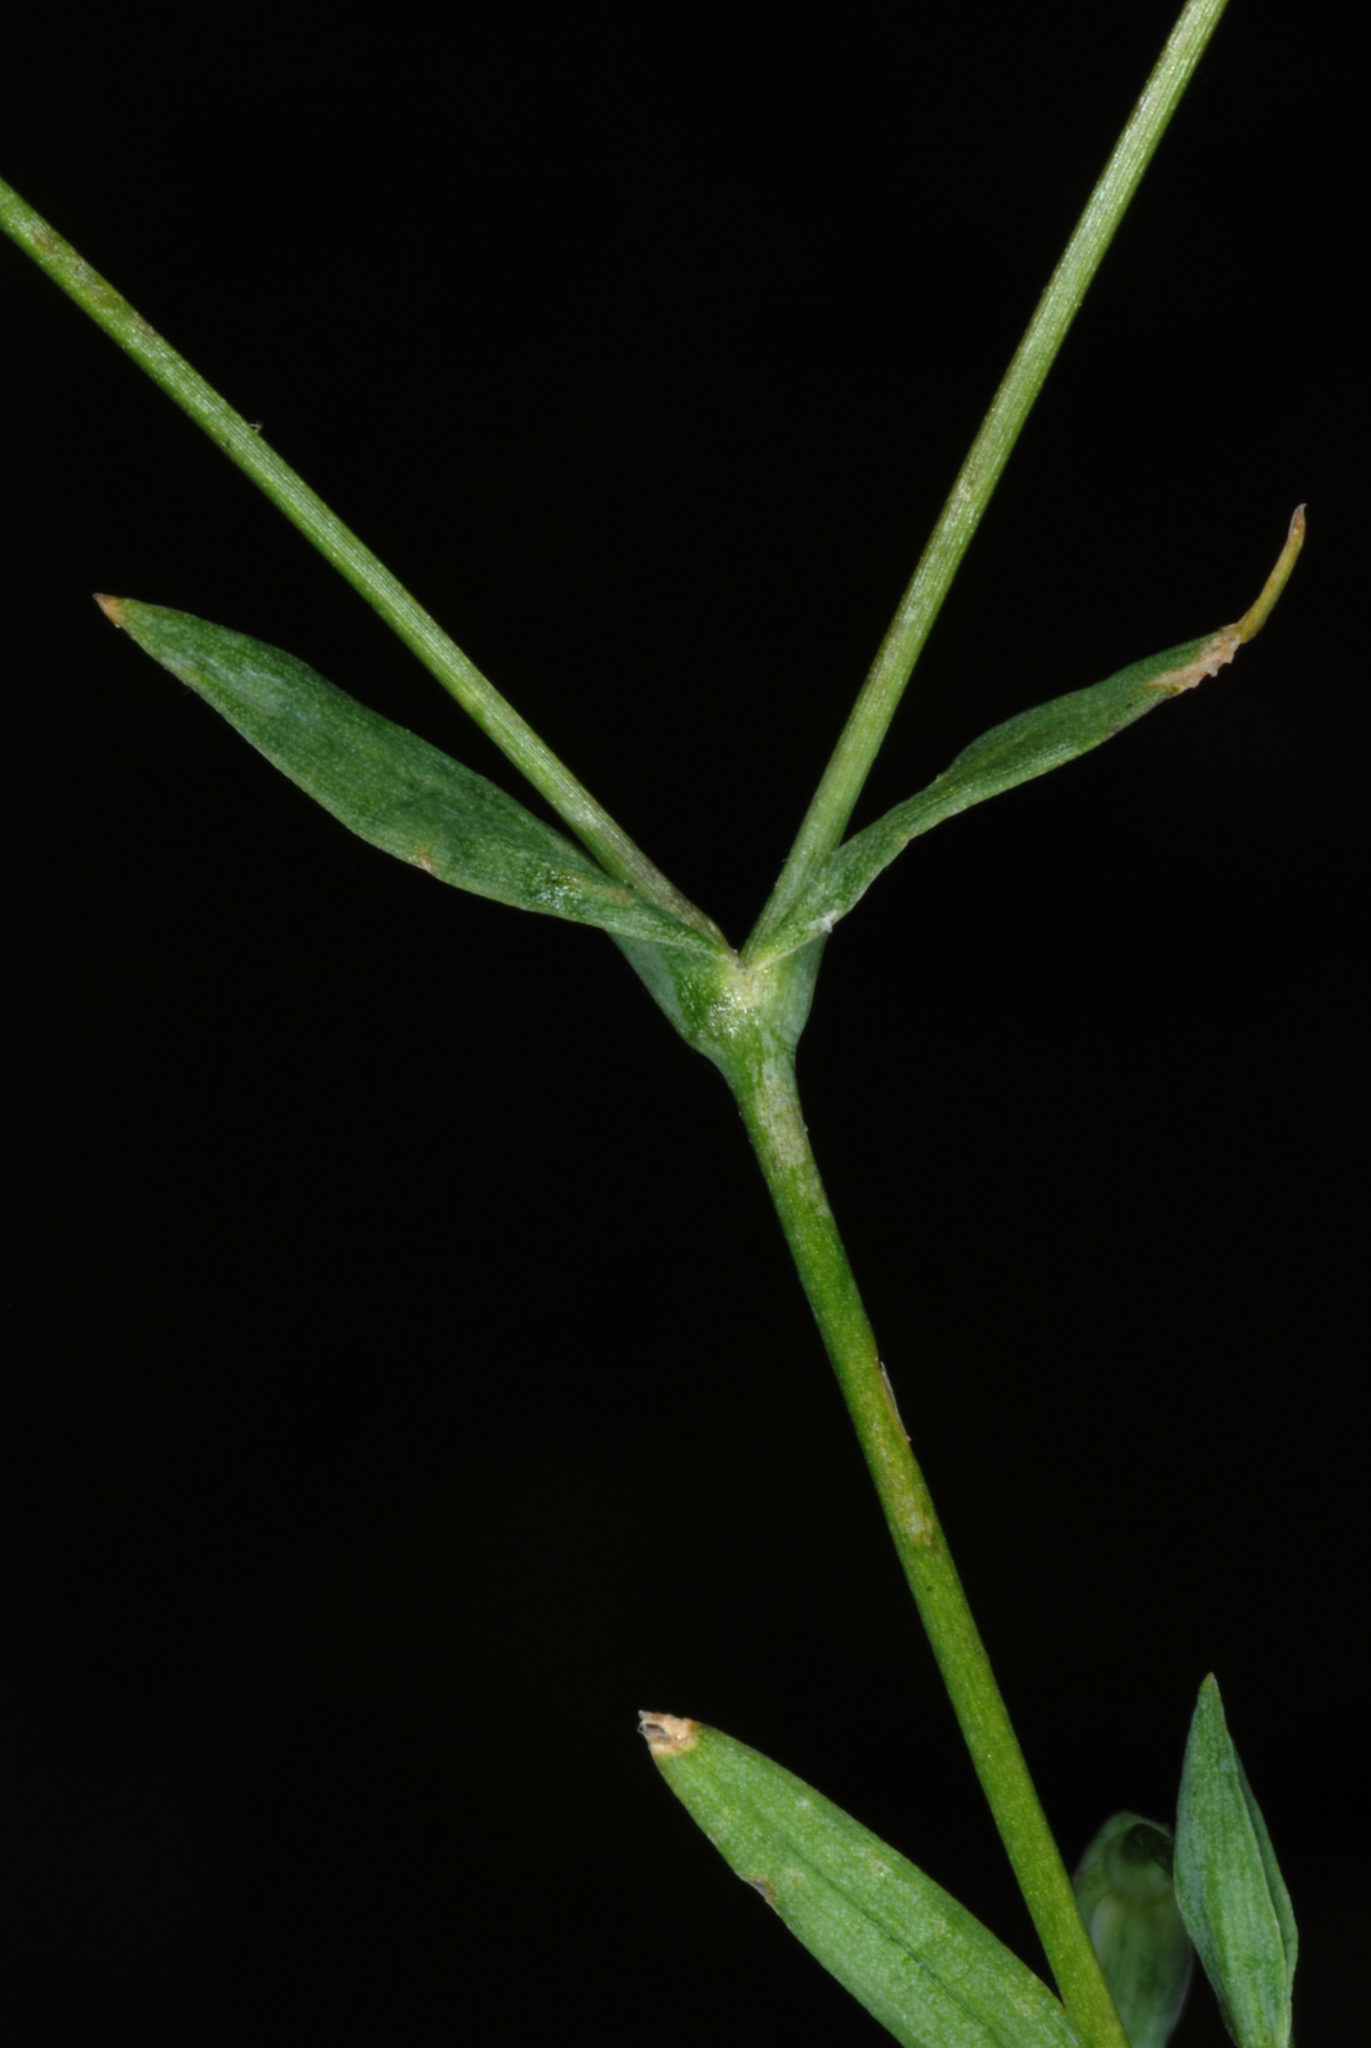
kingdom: Plantae
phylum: Tracheophyta
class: Magnoliopsida
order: Caryophyllales
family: Caryophyllaceae
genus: Moenchia
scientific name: Moenchia erecta
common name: Upright chickweed
